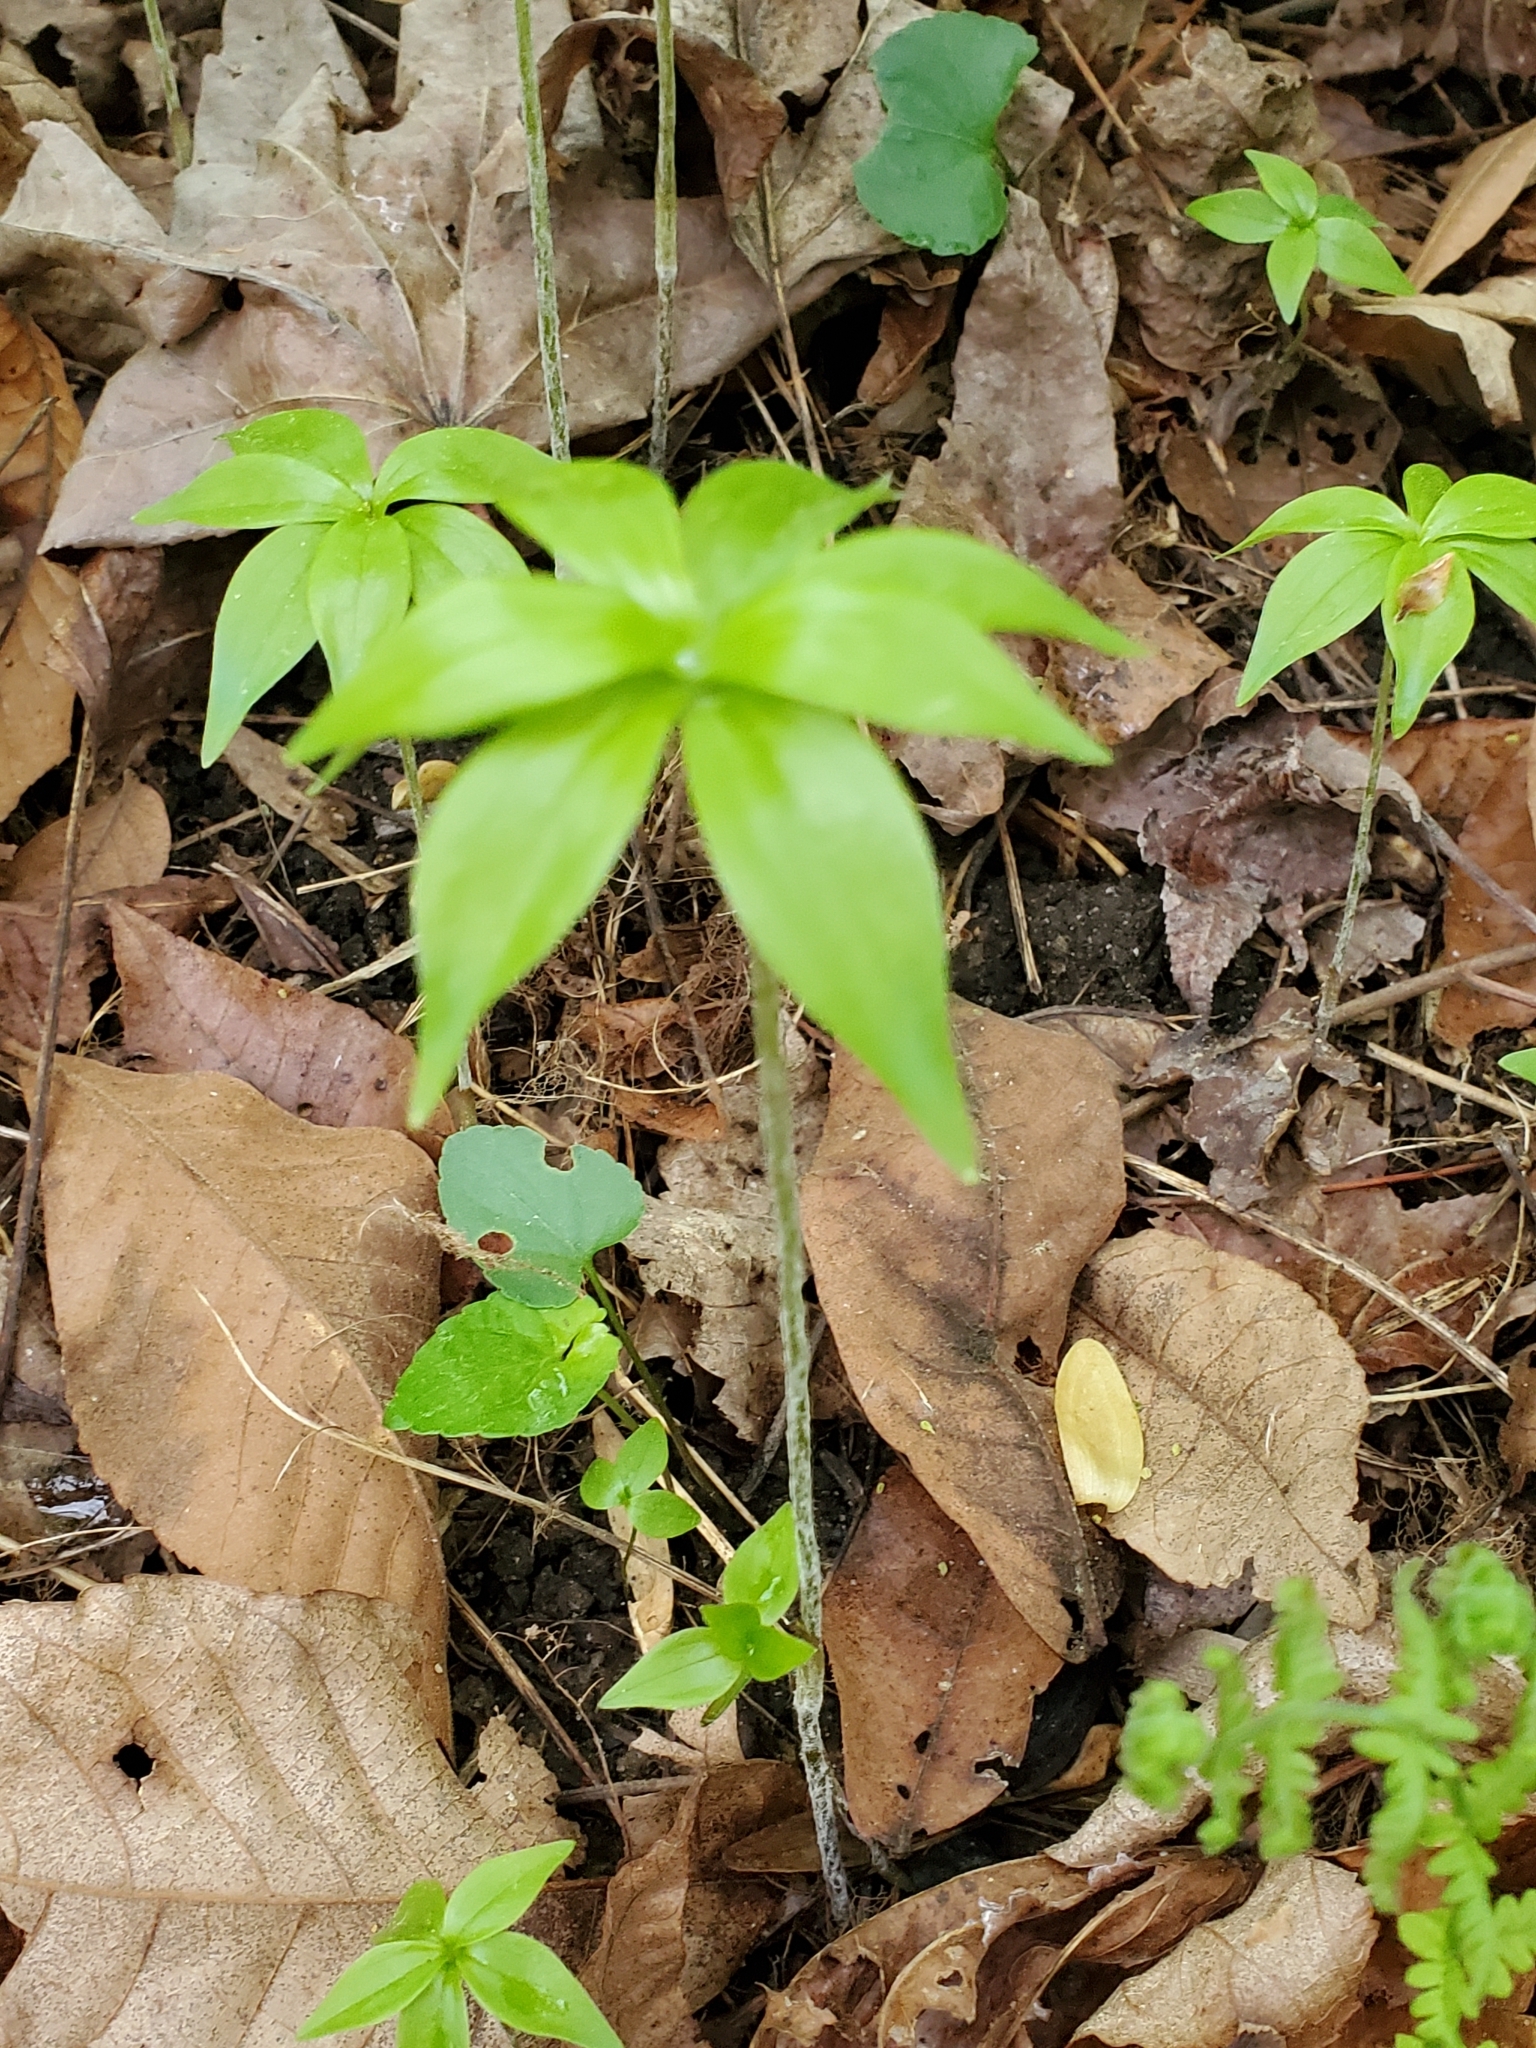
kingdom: Plantae
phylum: Tracheophyta
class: Liliopsida
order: Liliales
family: Liliaceae
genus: Medeola
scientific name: Medeola virginiana
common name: Indian cucumber-root
